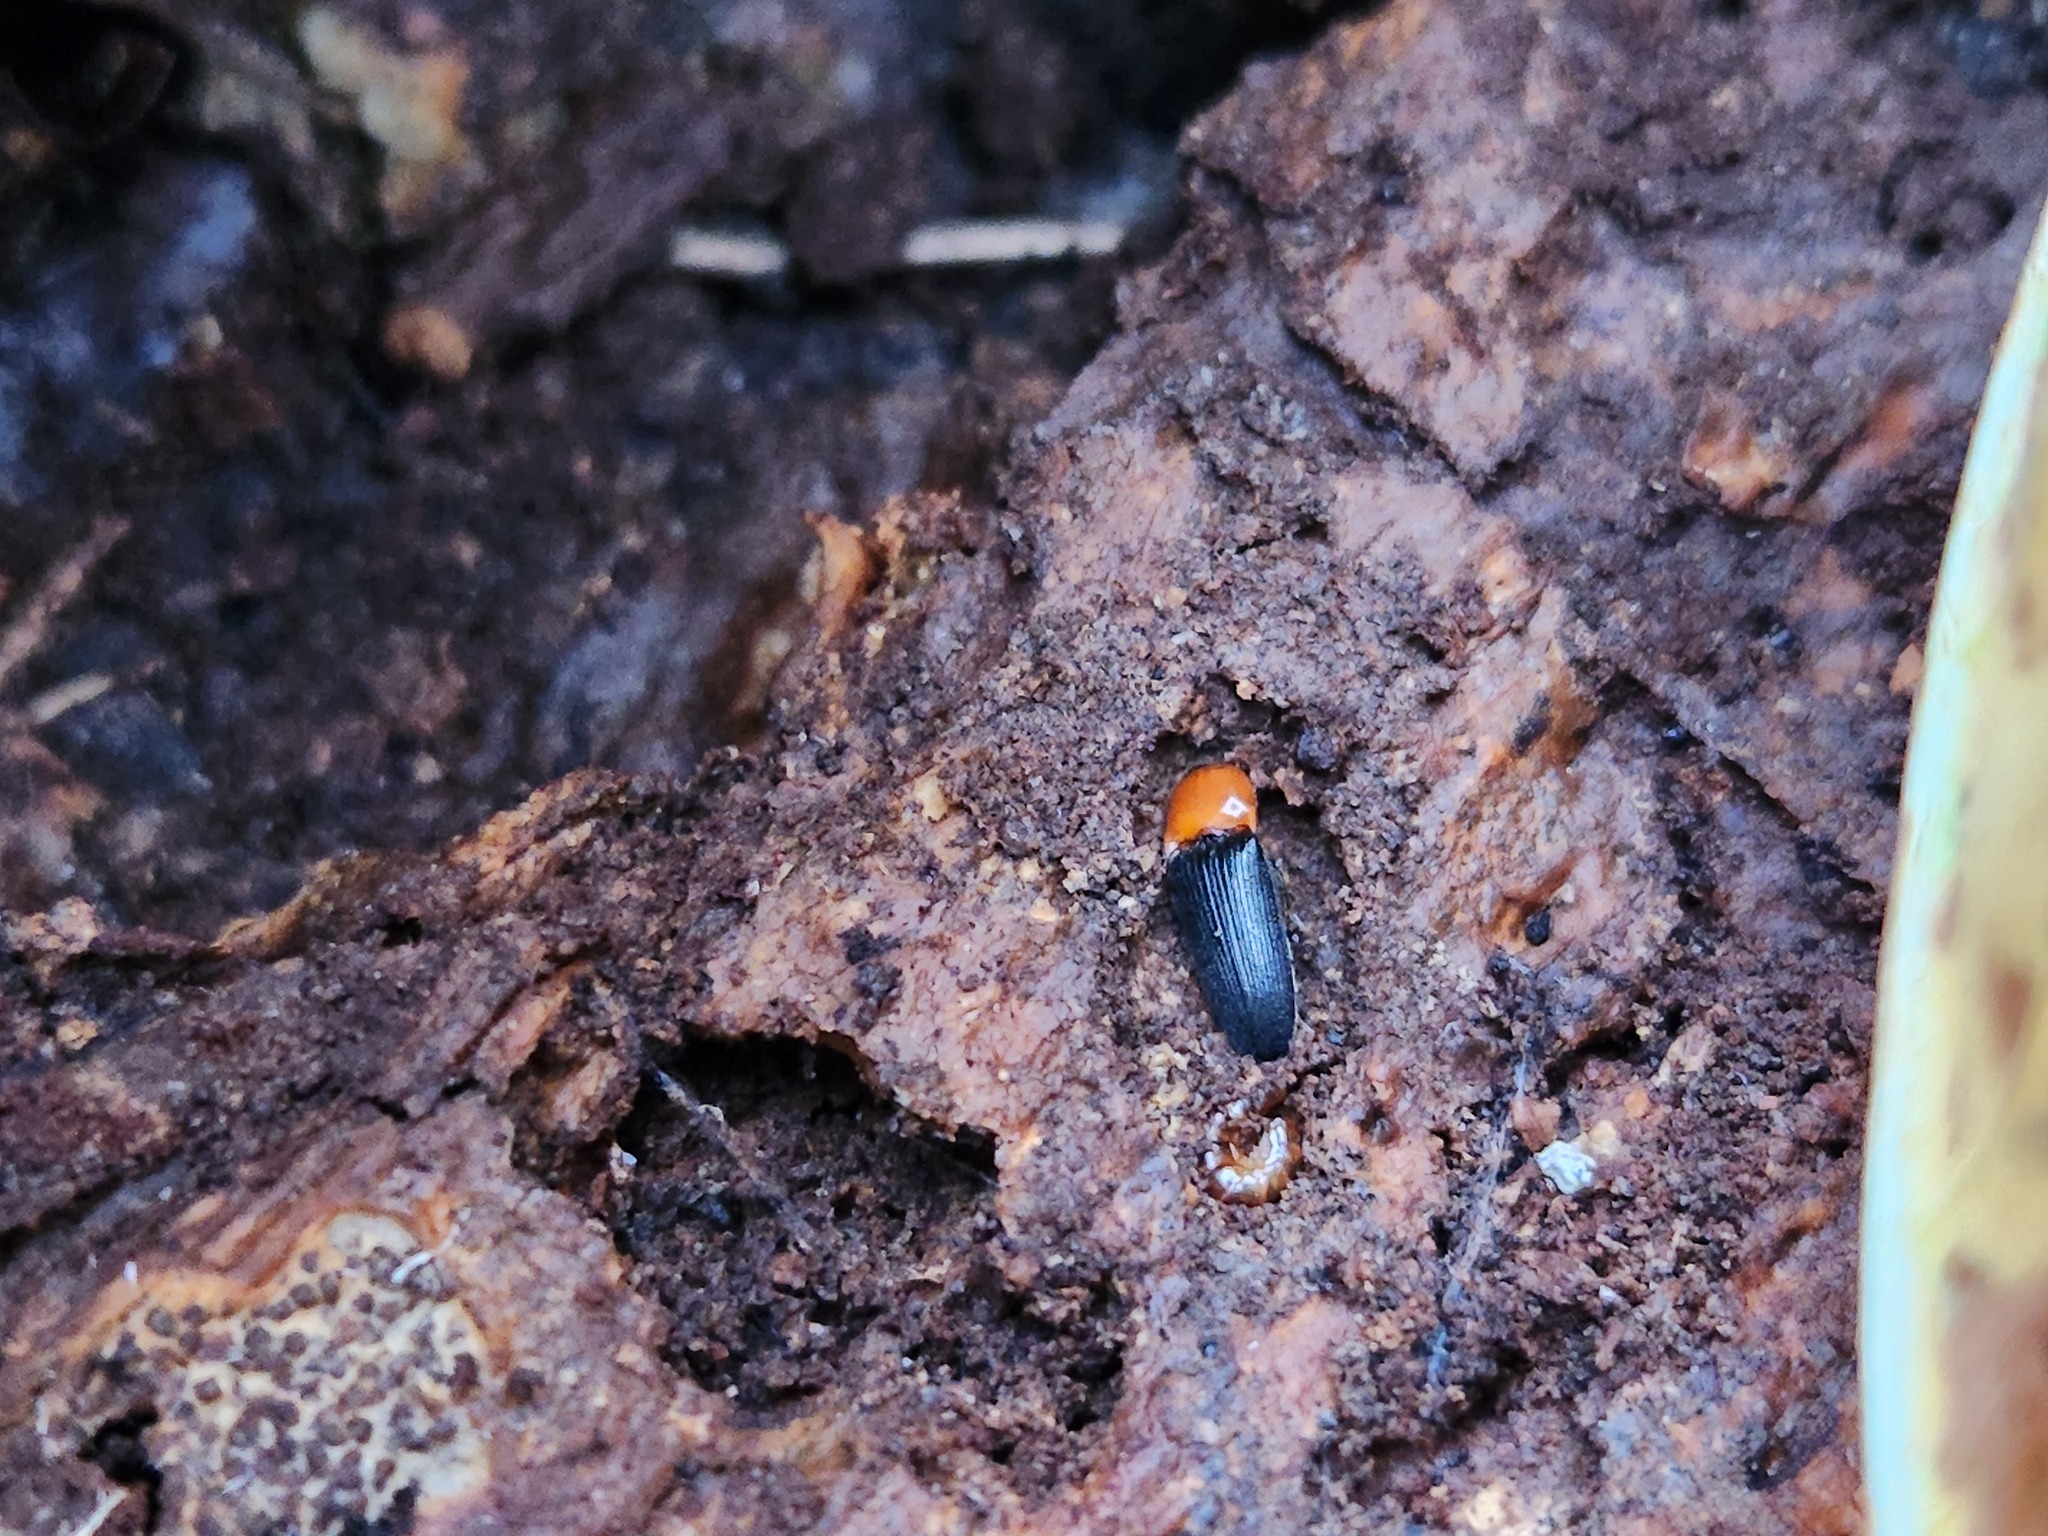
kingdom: Animalia
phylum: Arthropoda
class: Insecta
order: Coleoptera
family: Elateridae
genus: Ampedus
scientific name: Ampedus collaris
